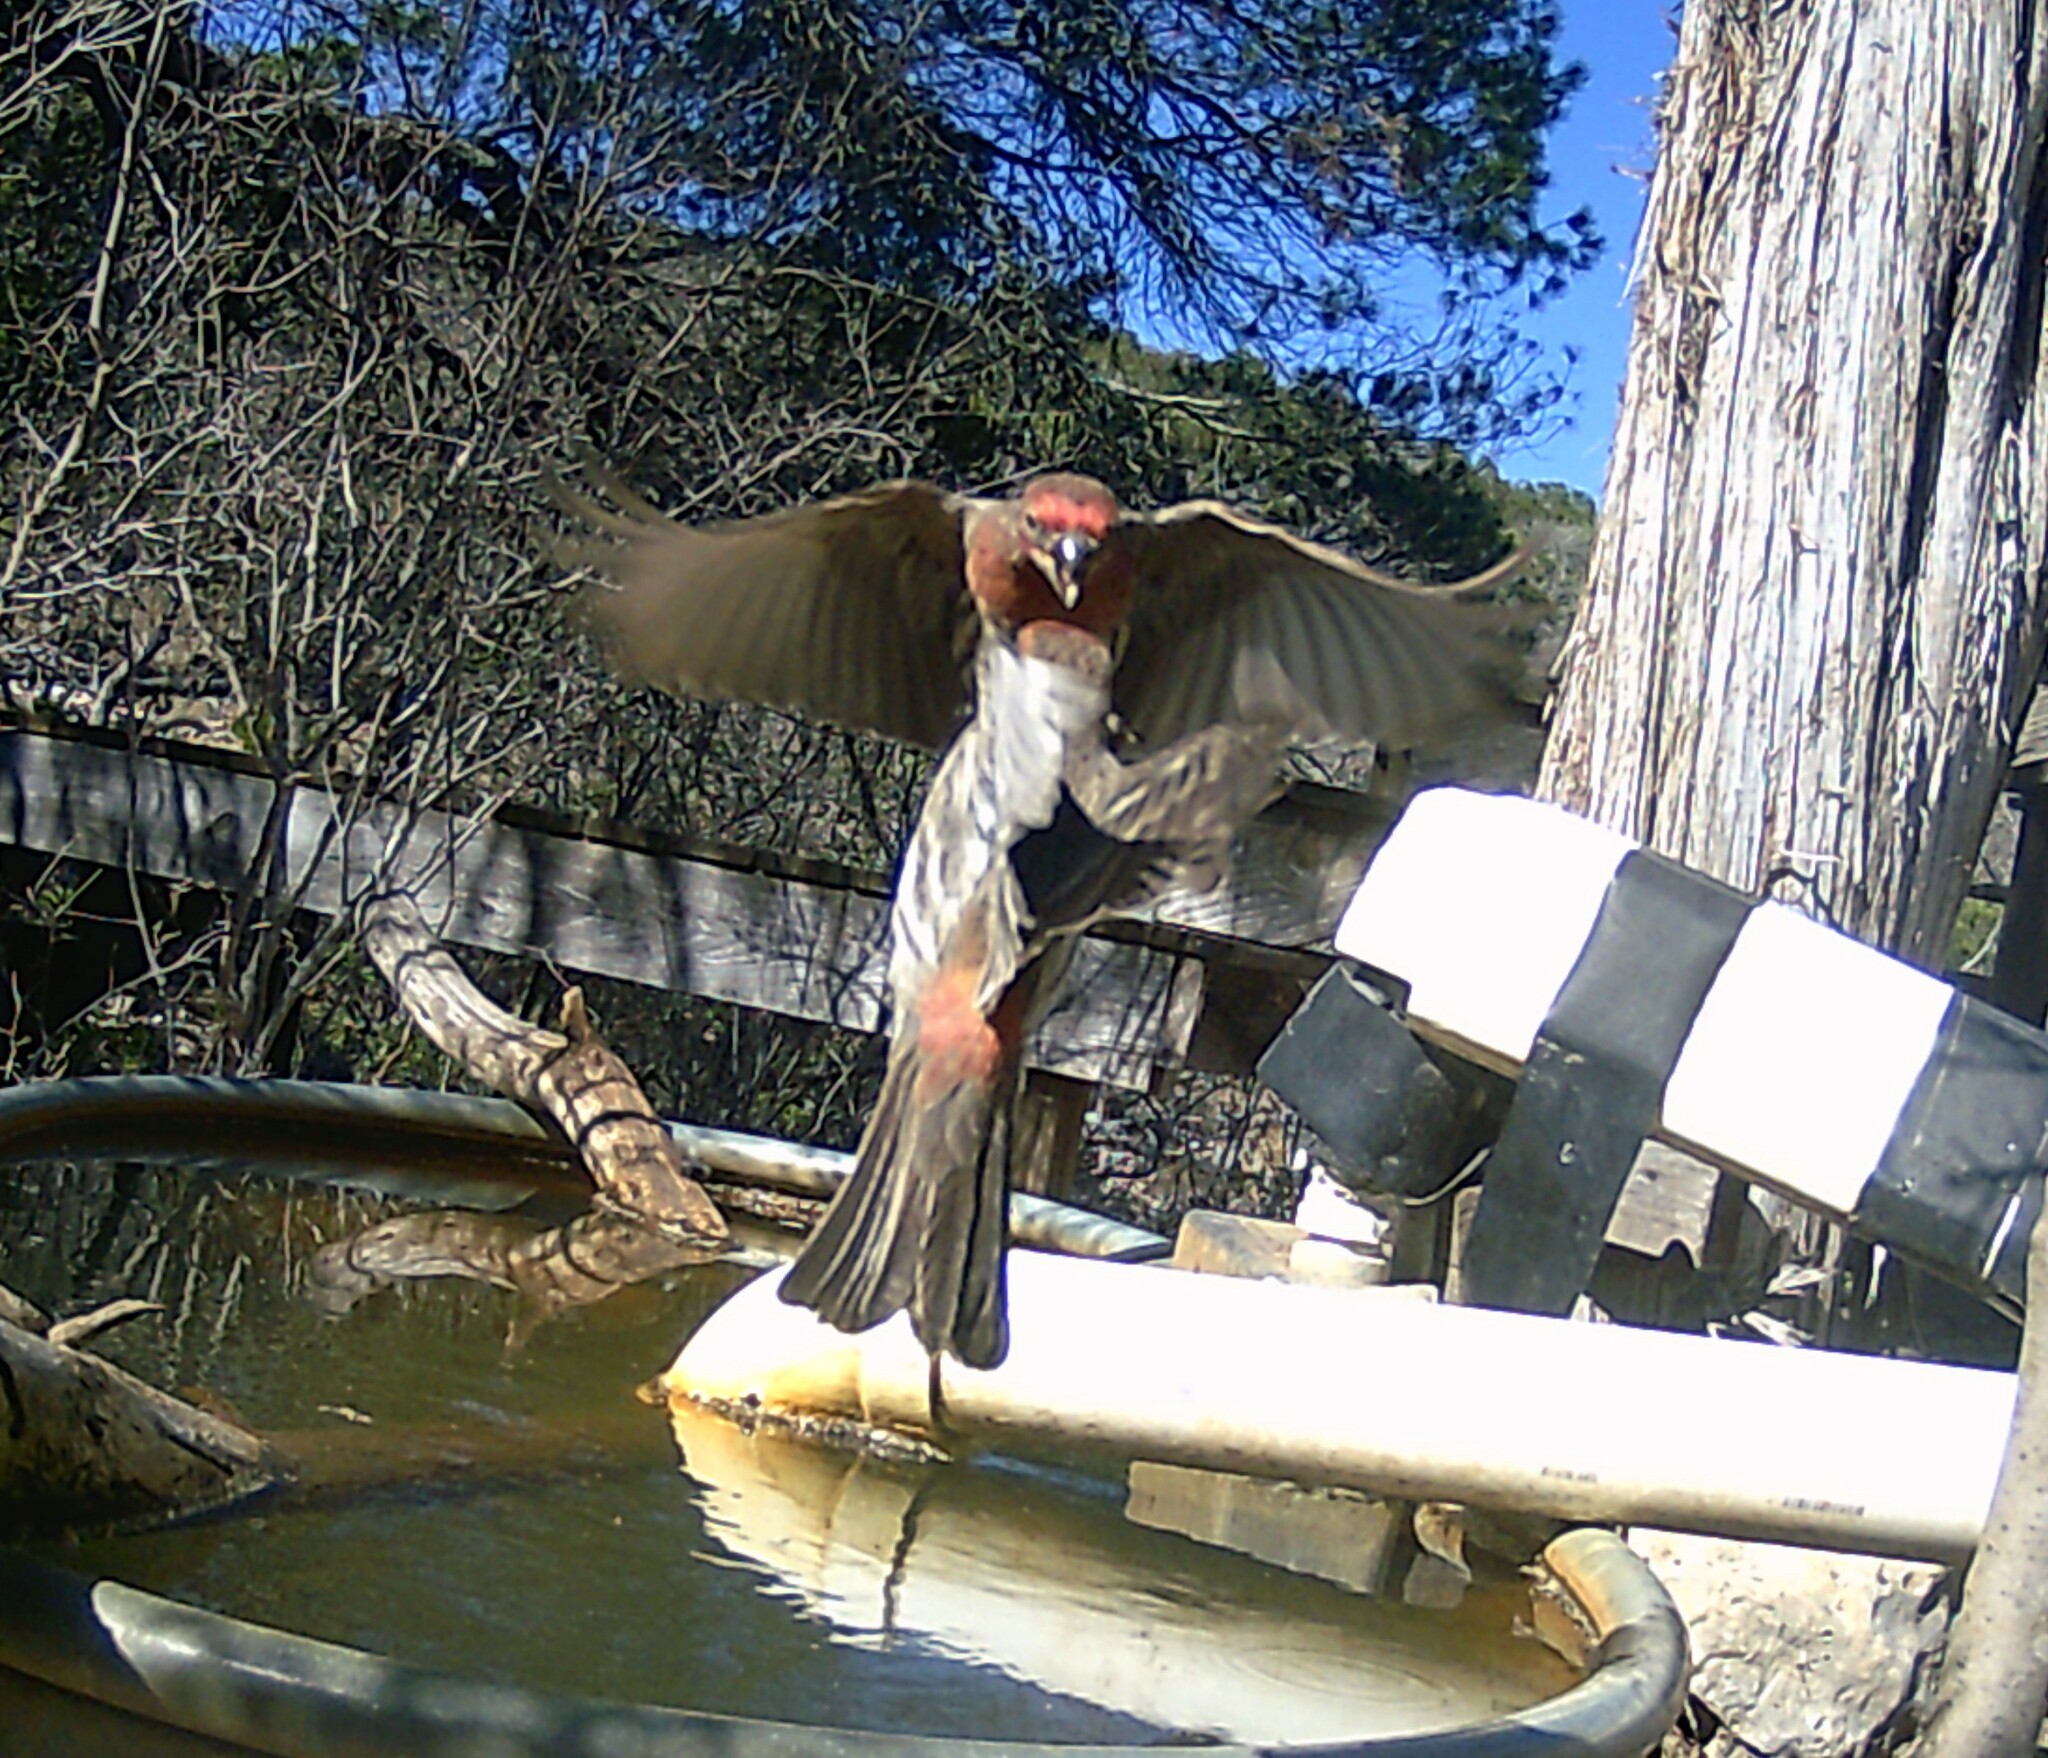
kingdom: Animalia
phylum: Chordata
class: Aves
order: Passeriformes
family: Fringillidae
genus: Haemorhous
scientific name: Haemorhous mexicanus
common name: House finch
